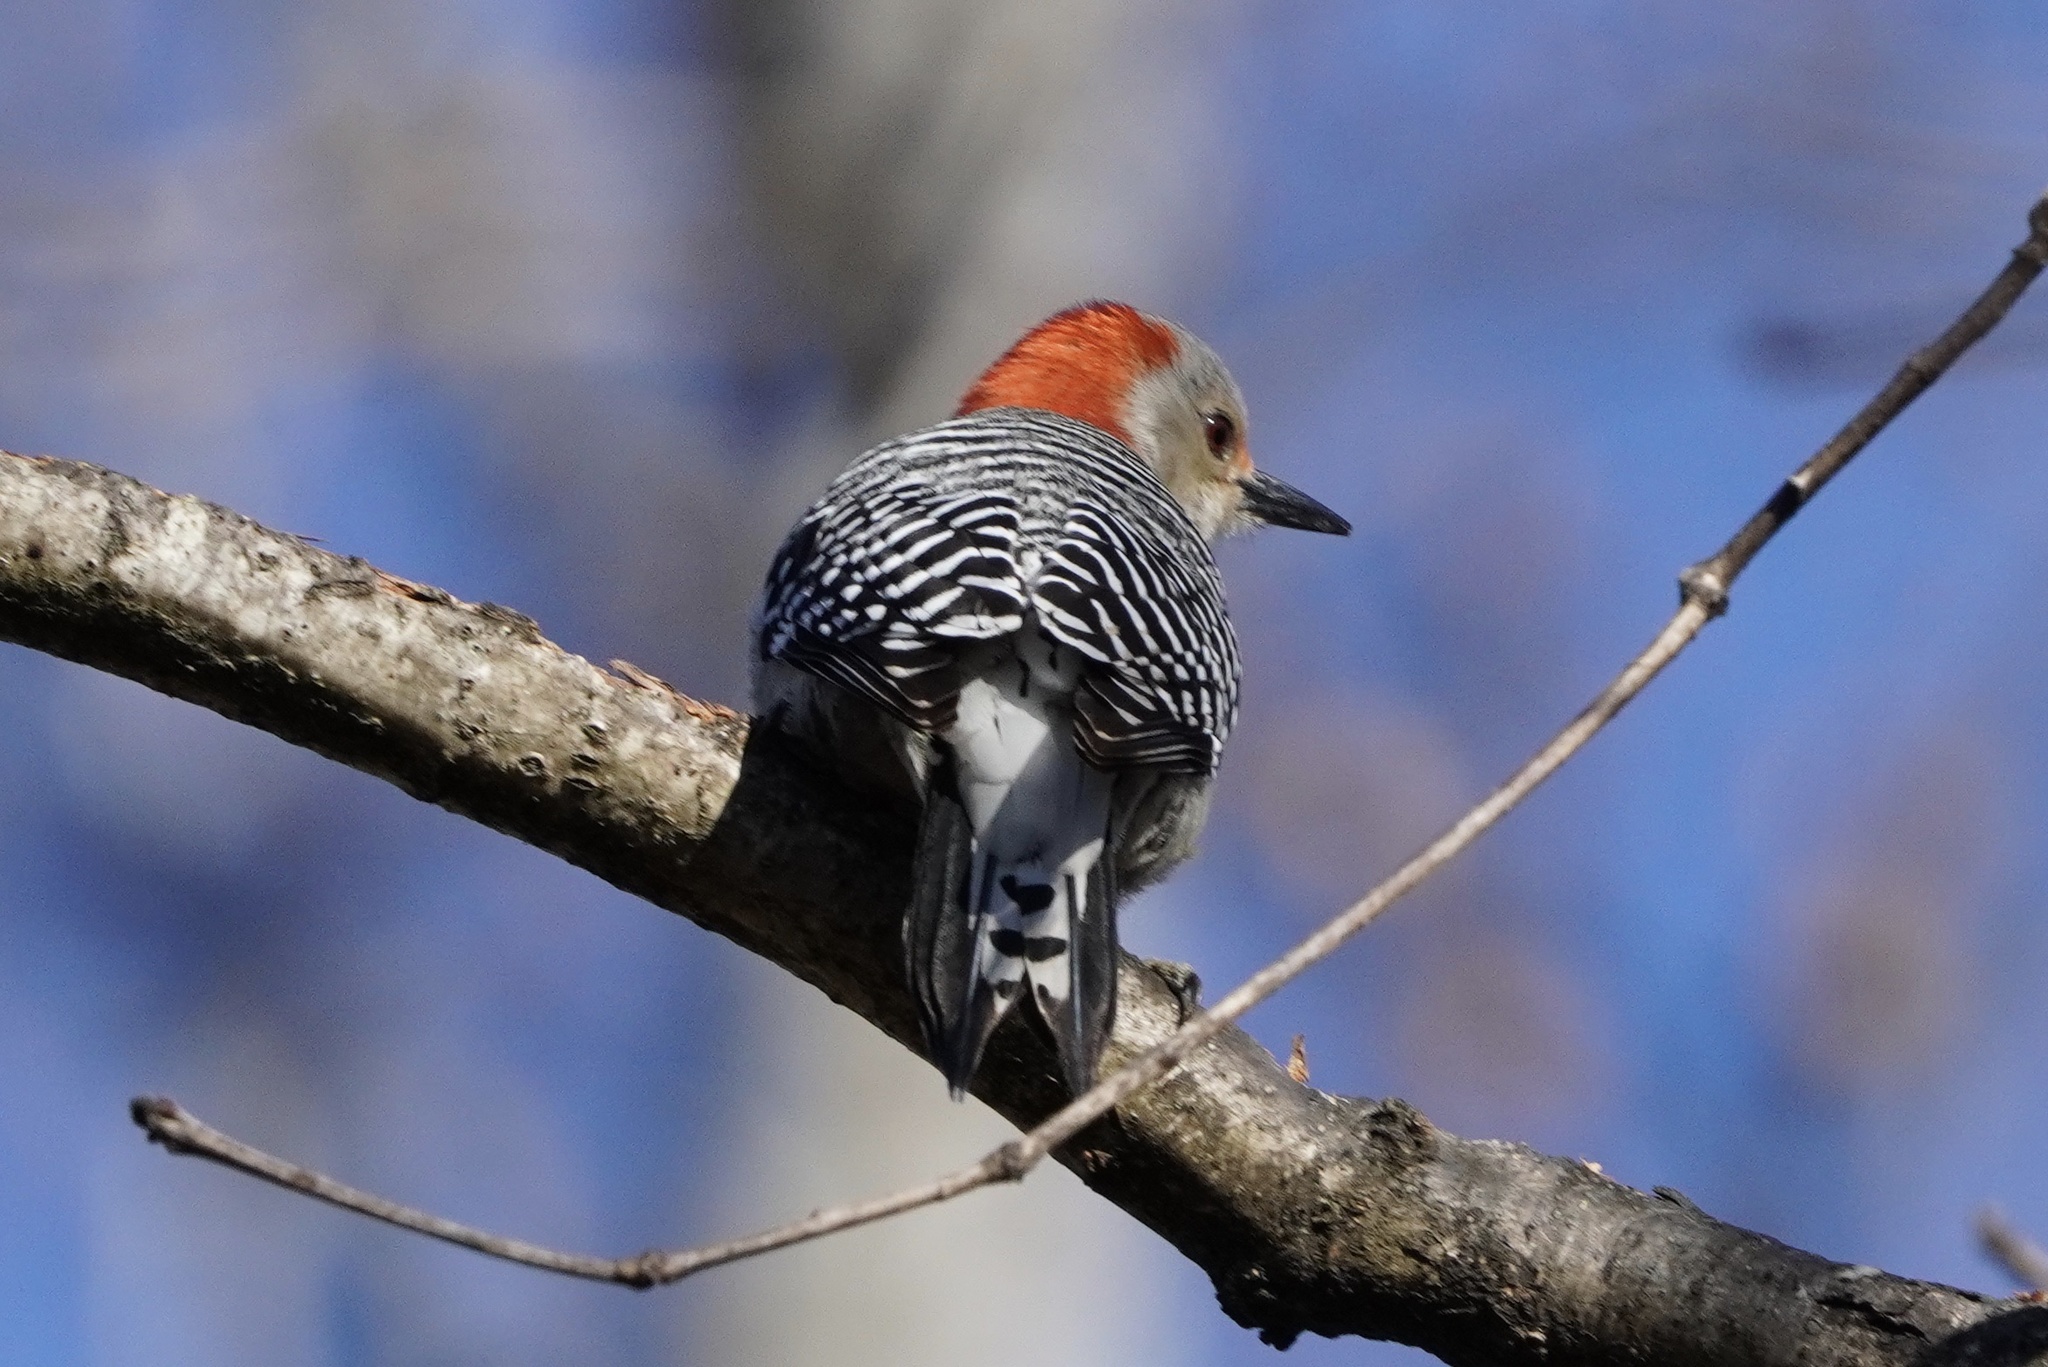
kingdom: Animalia
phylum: Chordata
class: Aves
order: Piciformes
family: Picidae
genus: Melanerpes
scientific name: Melanerpes carolinus
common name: Red-bellied woodpecker
